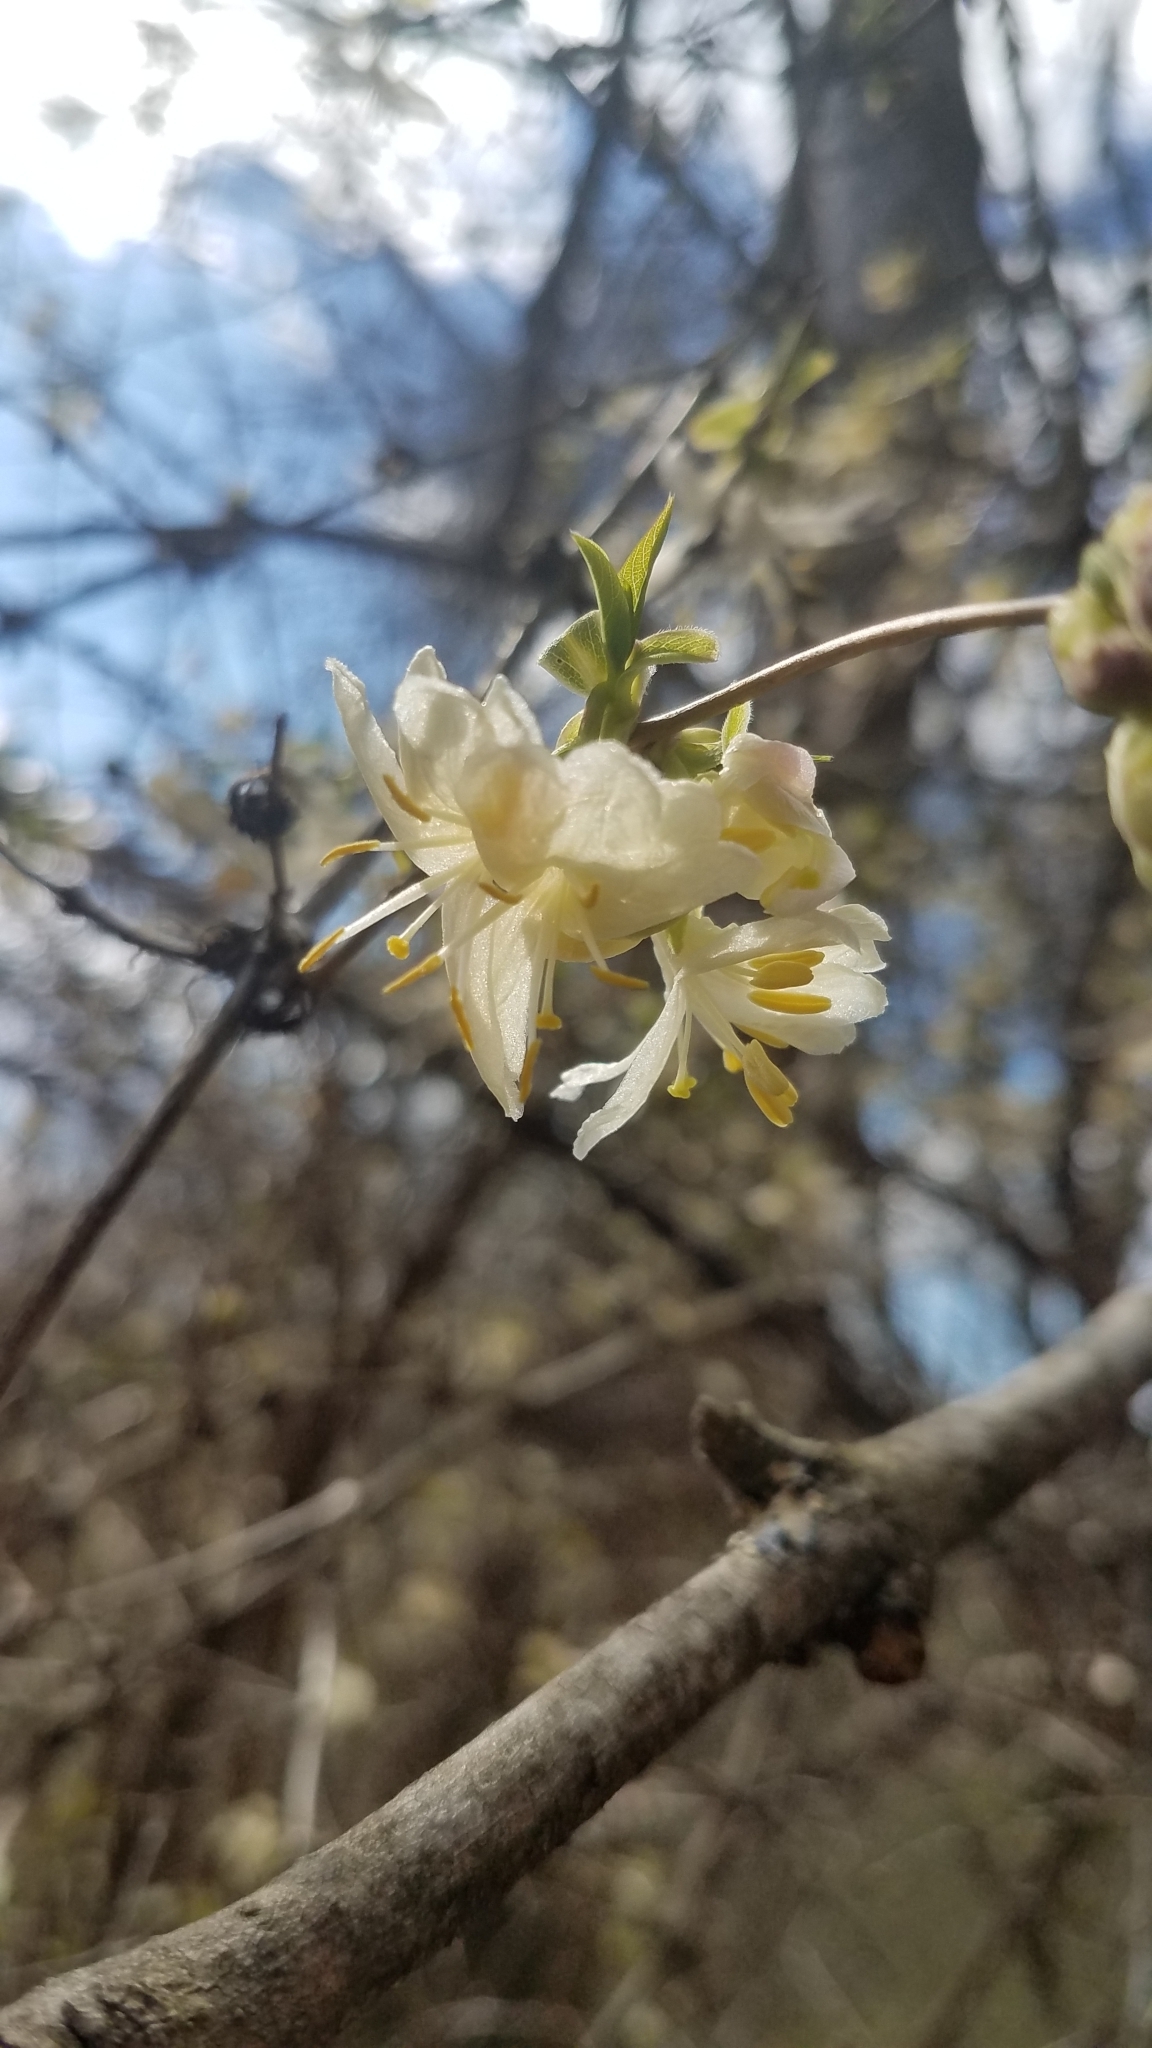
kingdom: Plantae
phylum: Tracheophyta
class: Magnoliopsida
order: Dipsacales
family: Caprifoliaceae
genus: Lonicera
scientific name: Lonicera fragrantissima
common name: Fragrant honeysuckle
